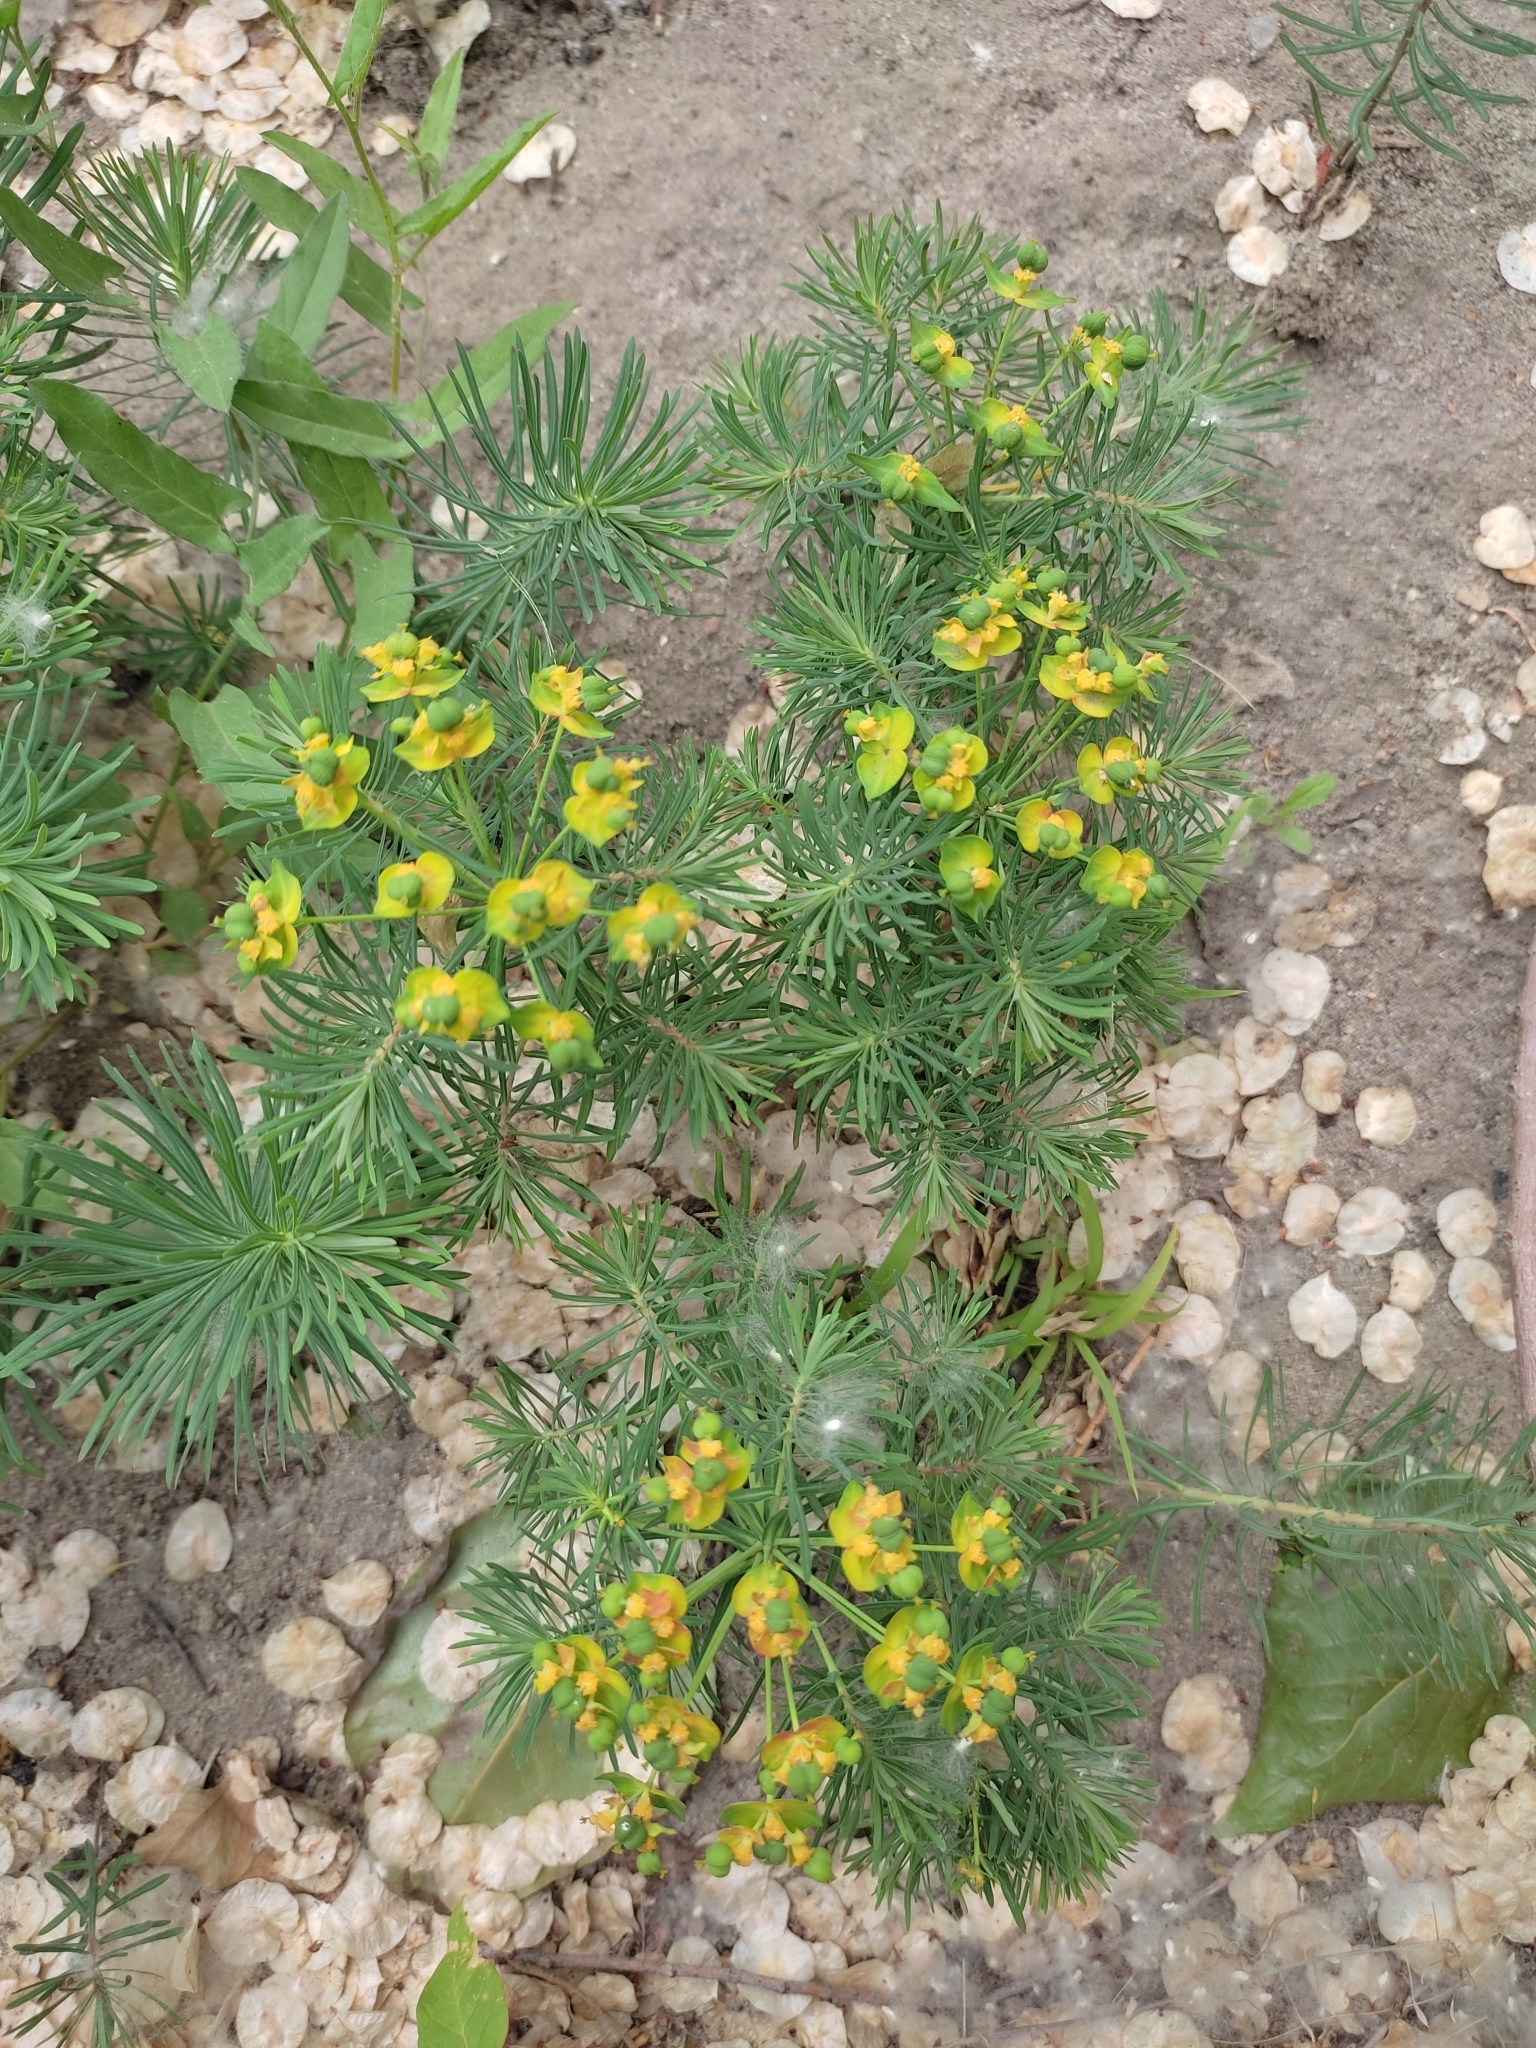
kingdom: Plantae
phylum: Tracheophyta
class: Magnoliopsida
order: Malpighiales
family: Euphorbiaceae
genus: Euphorbia
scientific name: Euphorbia cyparissias
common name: Cypress spurge
